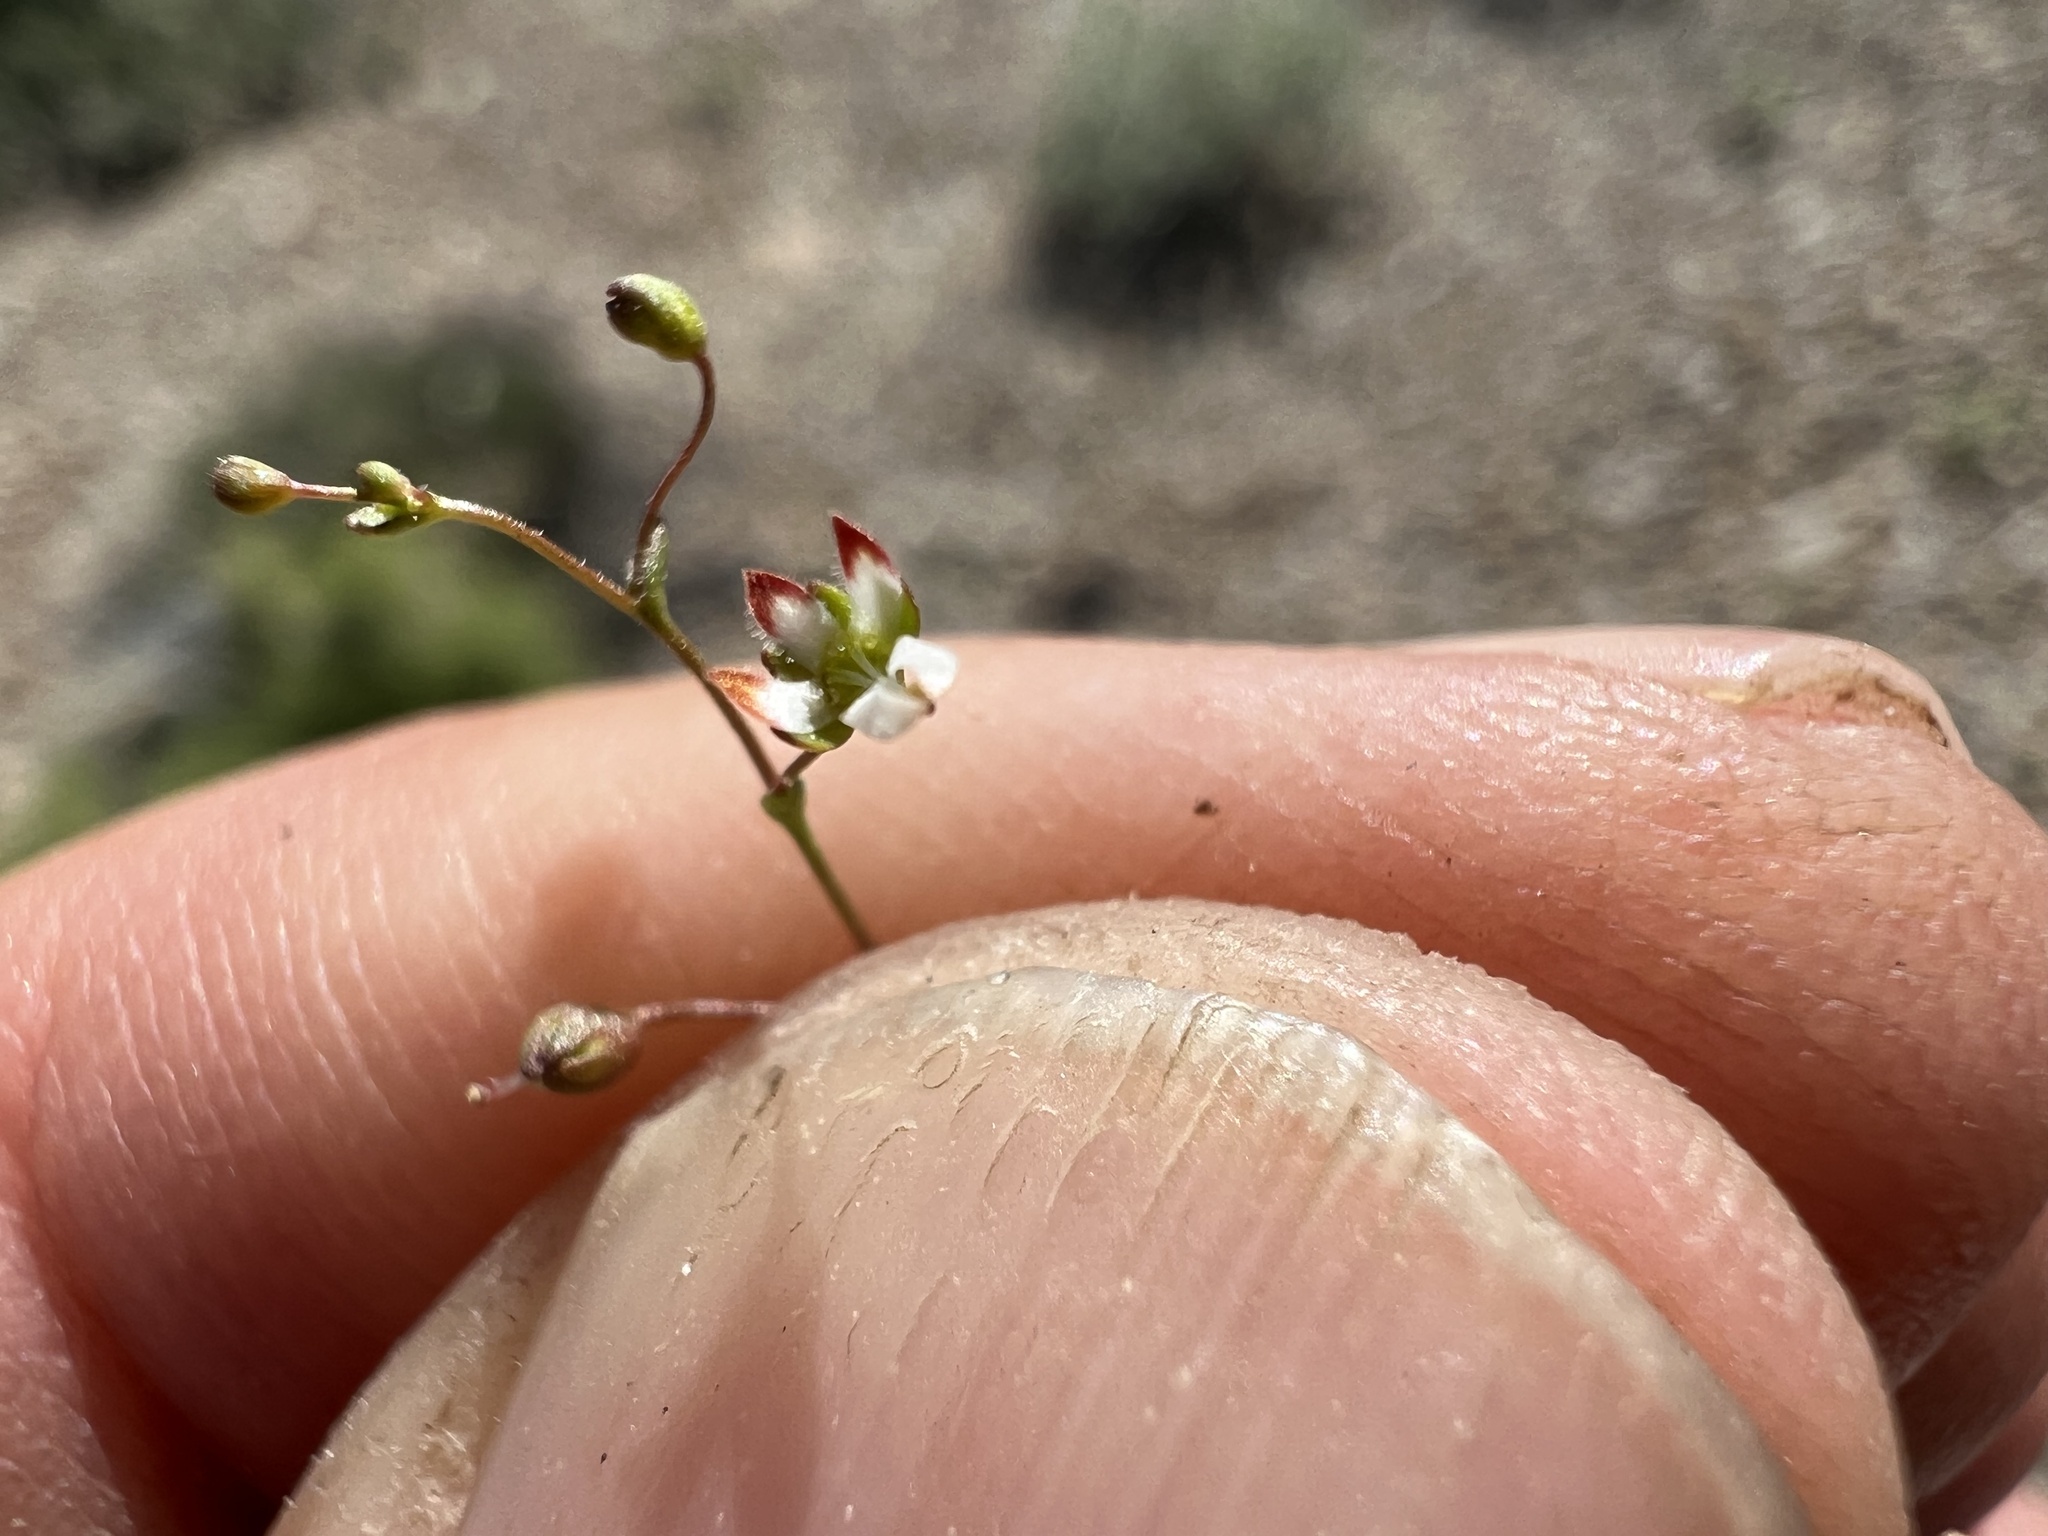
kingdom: Plantae
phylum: Tracheophyta
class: Magnoliopsida
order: Asterales
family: Campanulaceae
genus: Nemacladus
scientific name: Nemacladus morefieldii
